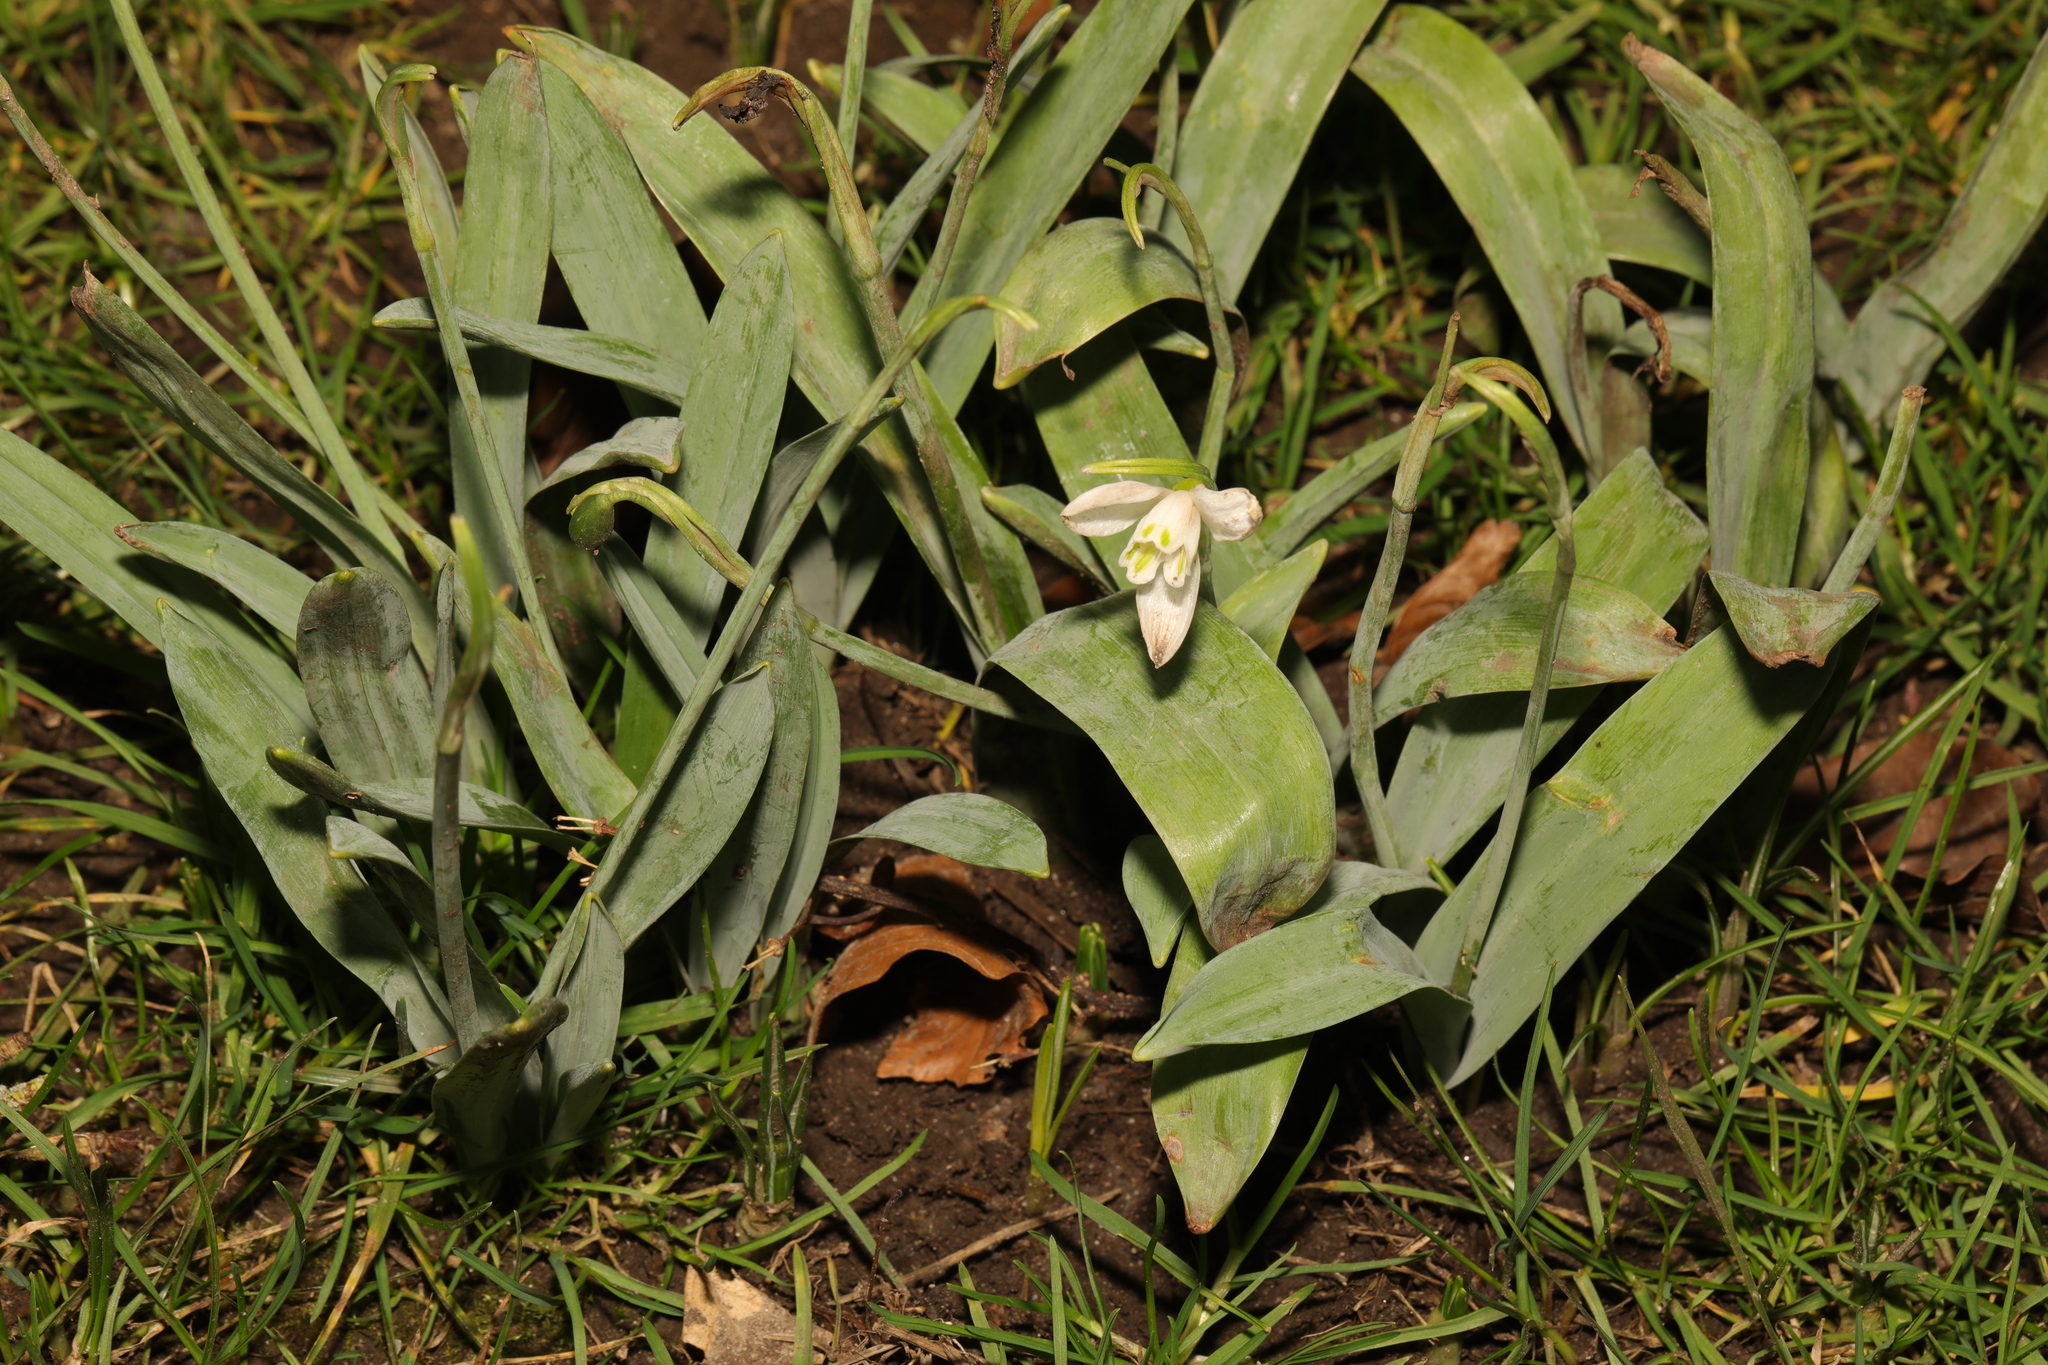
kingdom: Plantae
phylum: Tracheophyta
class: Liliopsida
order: Asparagales
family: Amaryllidaceae
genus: Galanthus
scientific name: Galanthus elwesii
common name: Greater snowdrop
